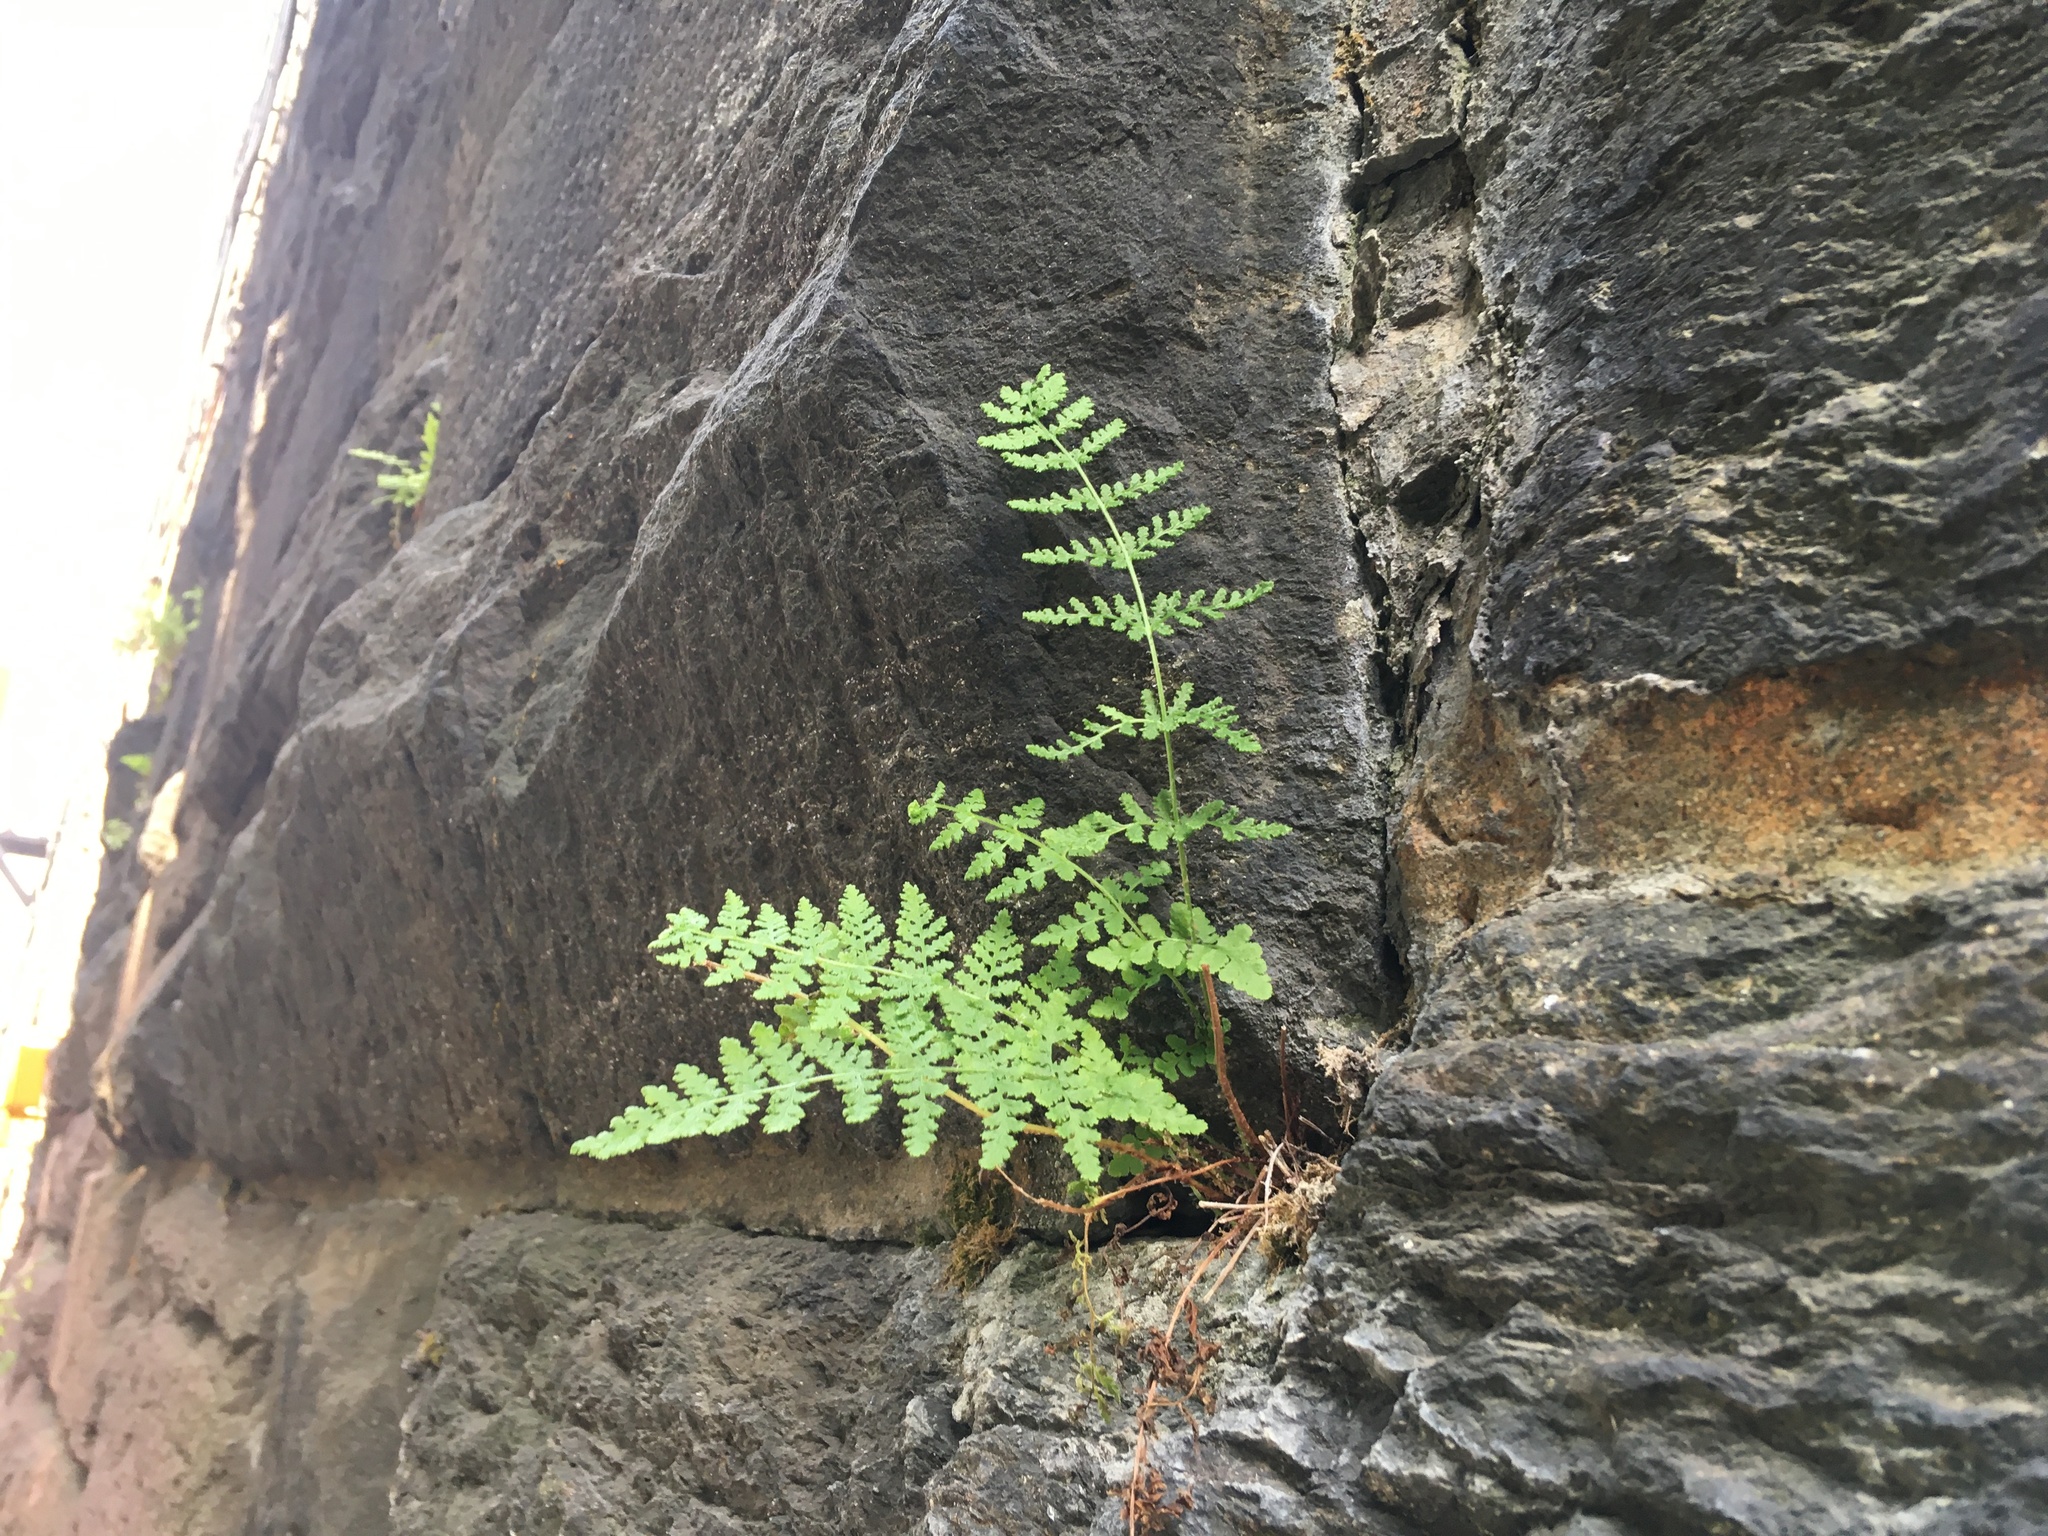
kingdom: Plantae
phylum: Tracheophyta
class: Polypodiopsida
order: Polypodiales
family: Woodsiaceae
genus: Physematium
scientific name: Physematium obtusum
